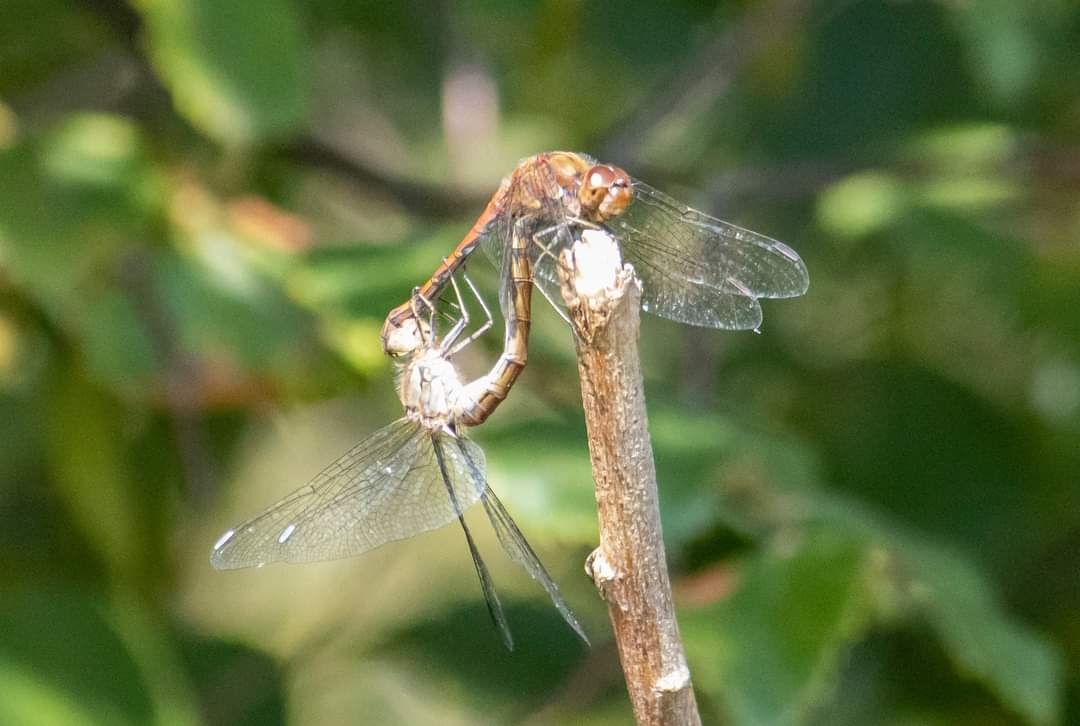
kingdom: Animalia
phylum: Arthropoda
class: Insecta
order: Odonata
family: Libellulidae
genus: Sympetrum
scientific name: Sympetrum striolatum
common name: Common darter
